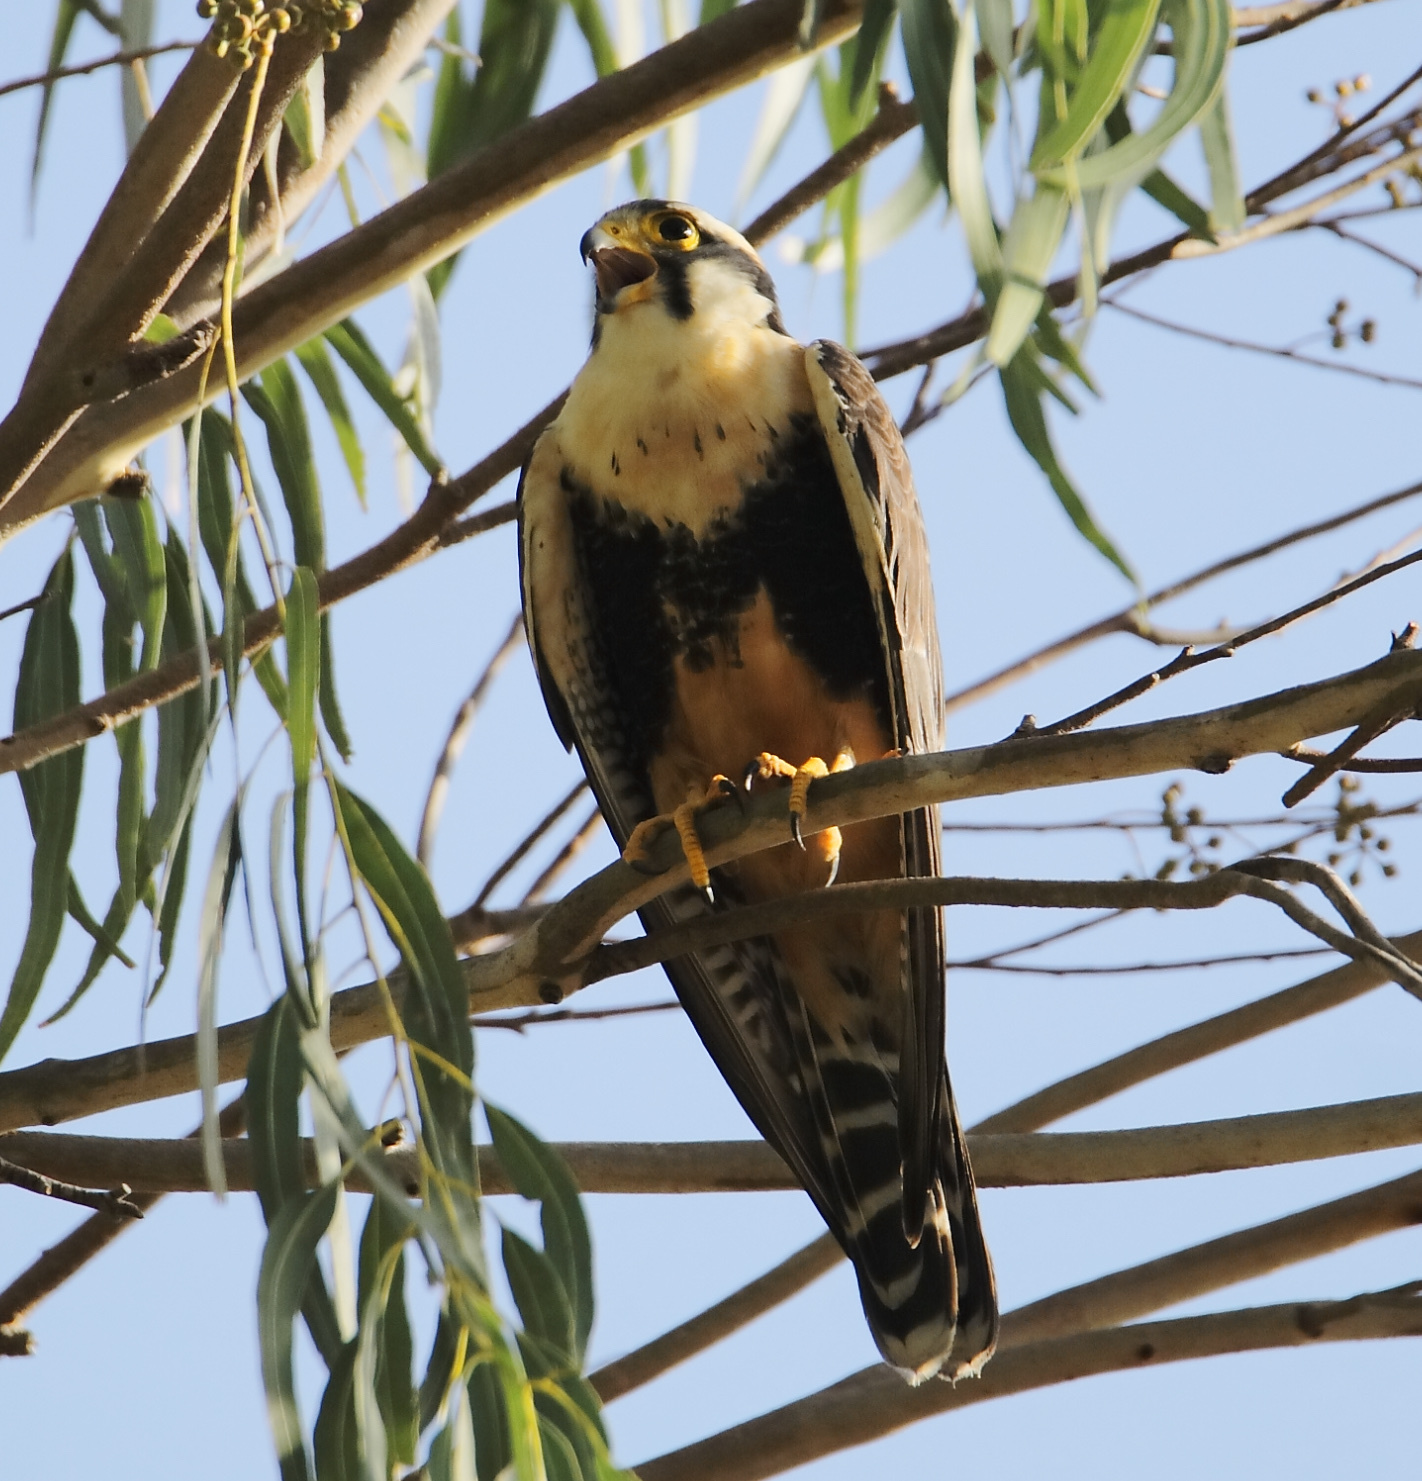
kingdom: Animalia
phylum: Chordata
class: Aves
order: Falconiformes
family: Falconidae
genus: Falco
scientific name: Falco femoralis
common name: Aplomado falcon
